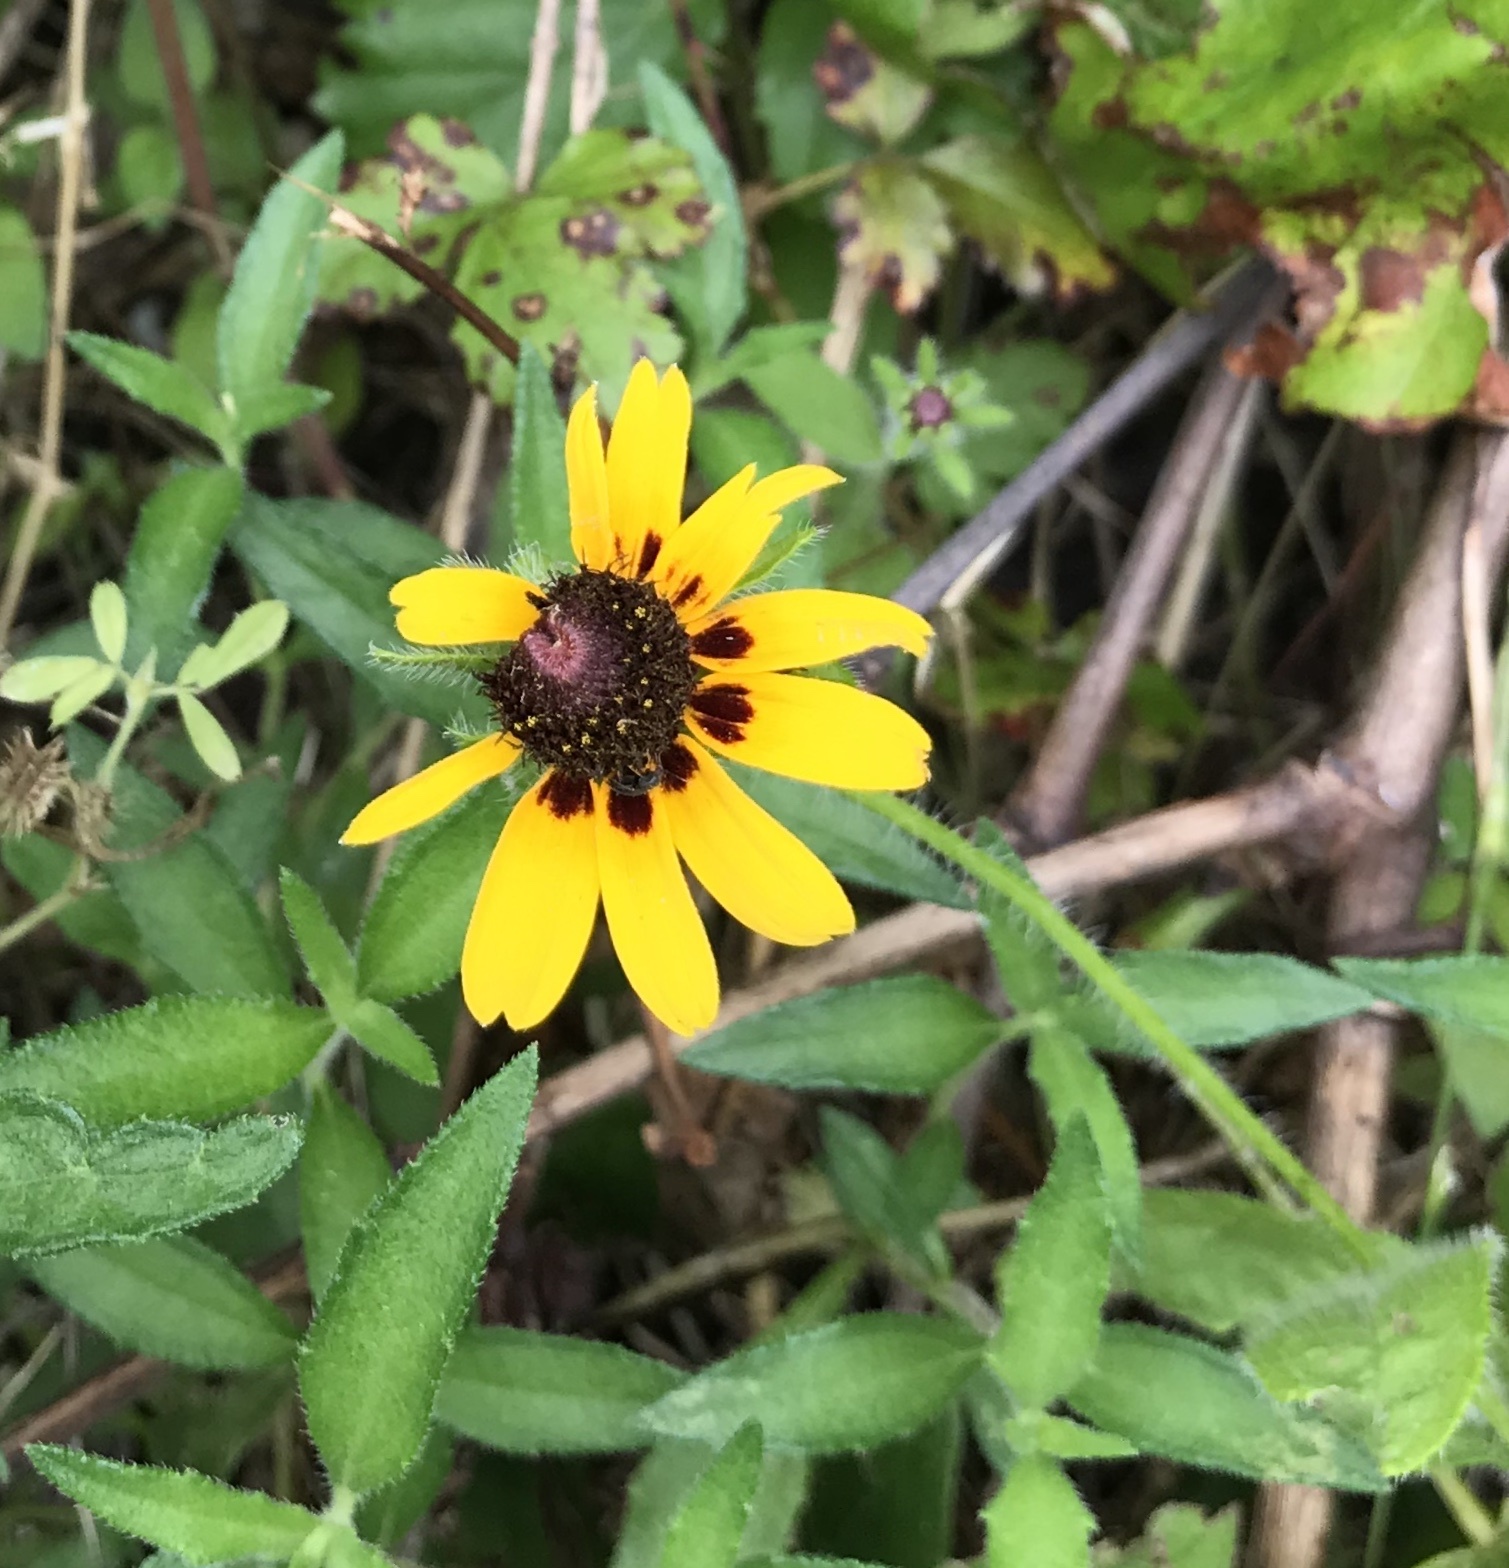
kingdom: Plantae
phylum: Tracheophyta
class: Magnoliopsida
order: Asterales
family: Asteraceae
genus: Rudbeckia
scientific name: Rudbeckia hirta
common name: Black-eyed-susan
